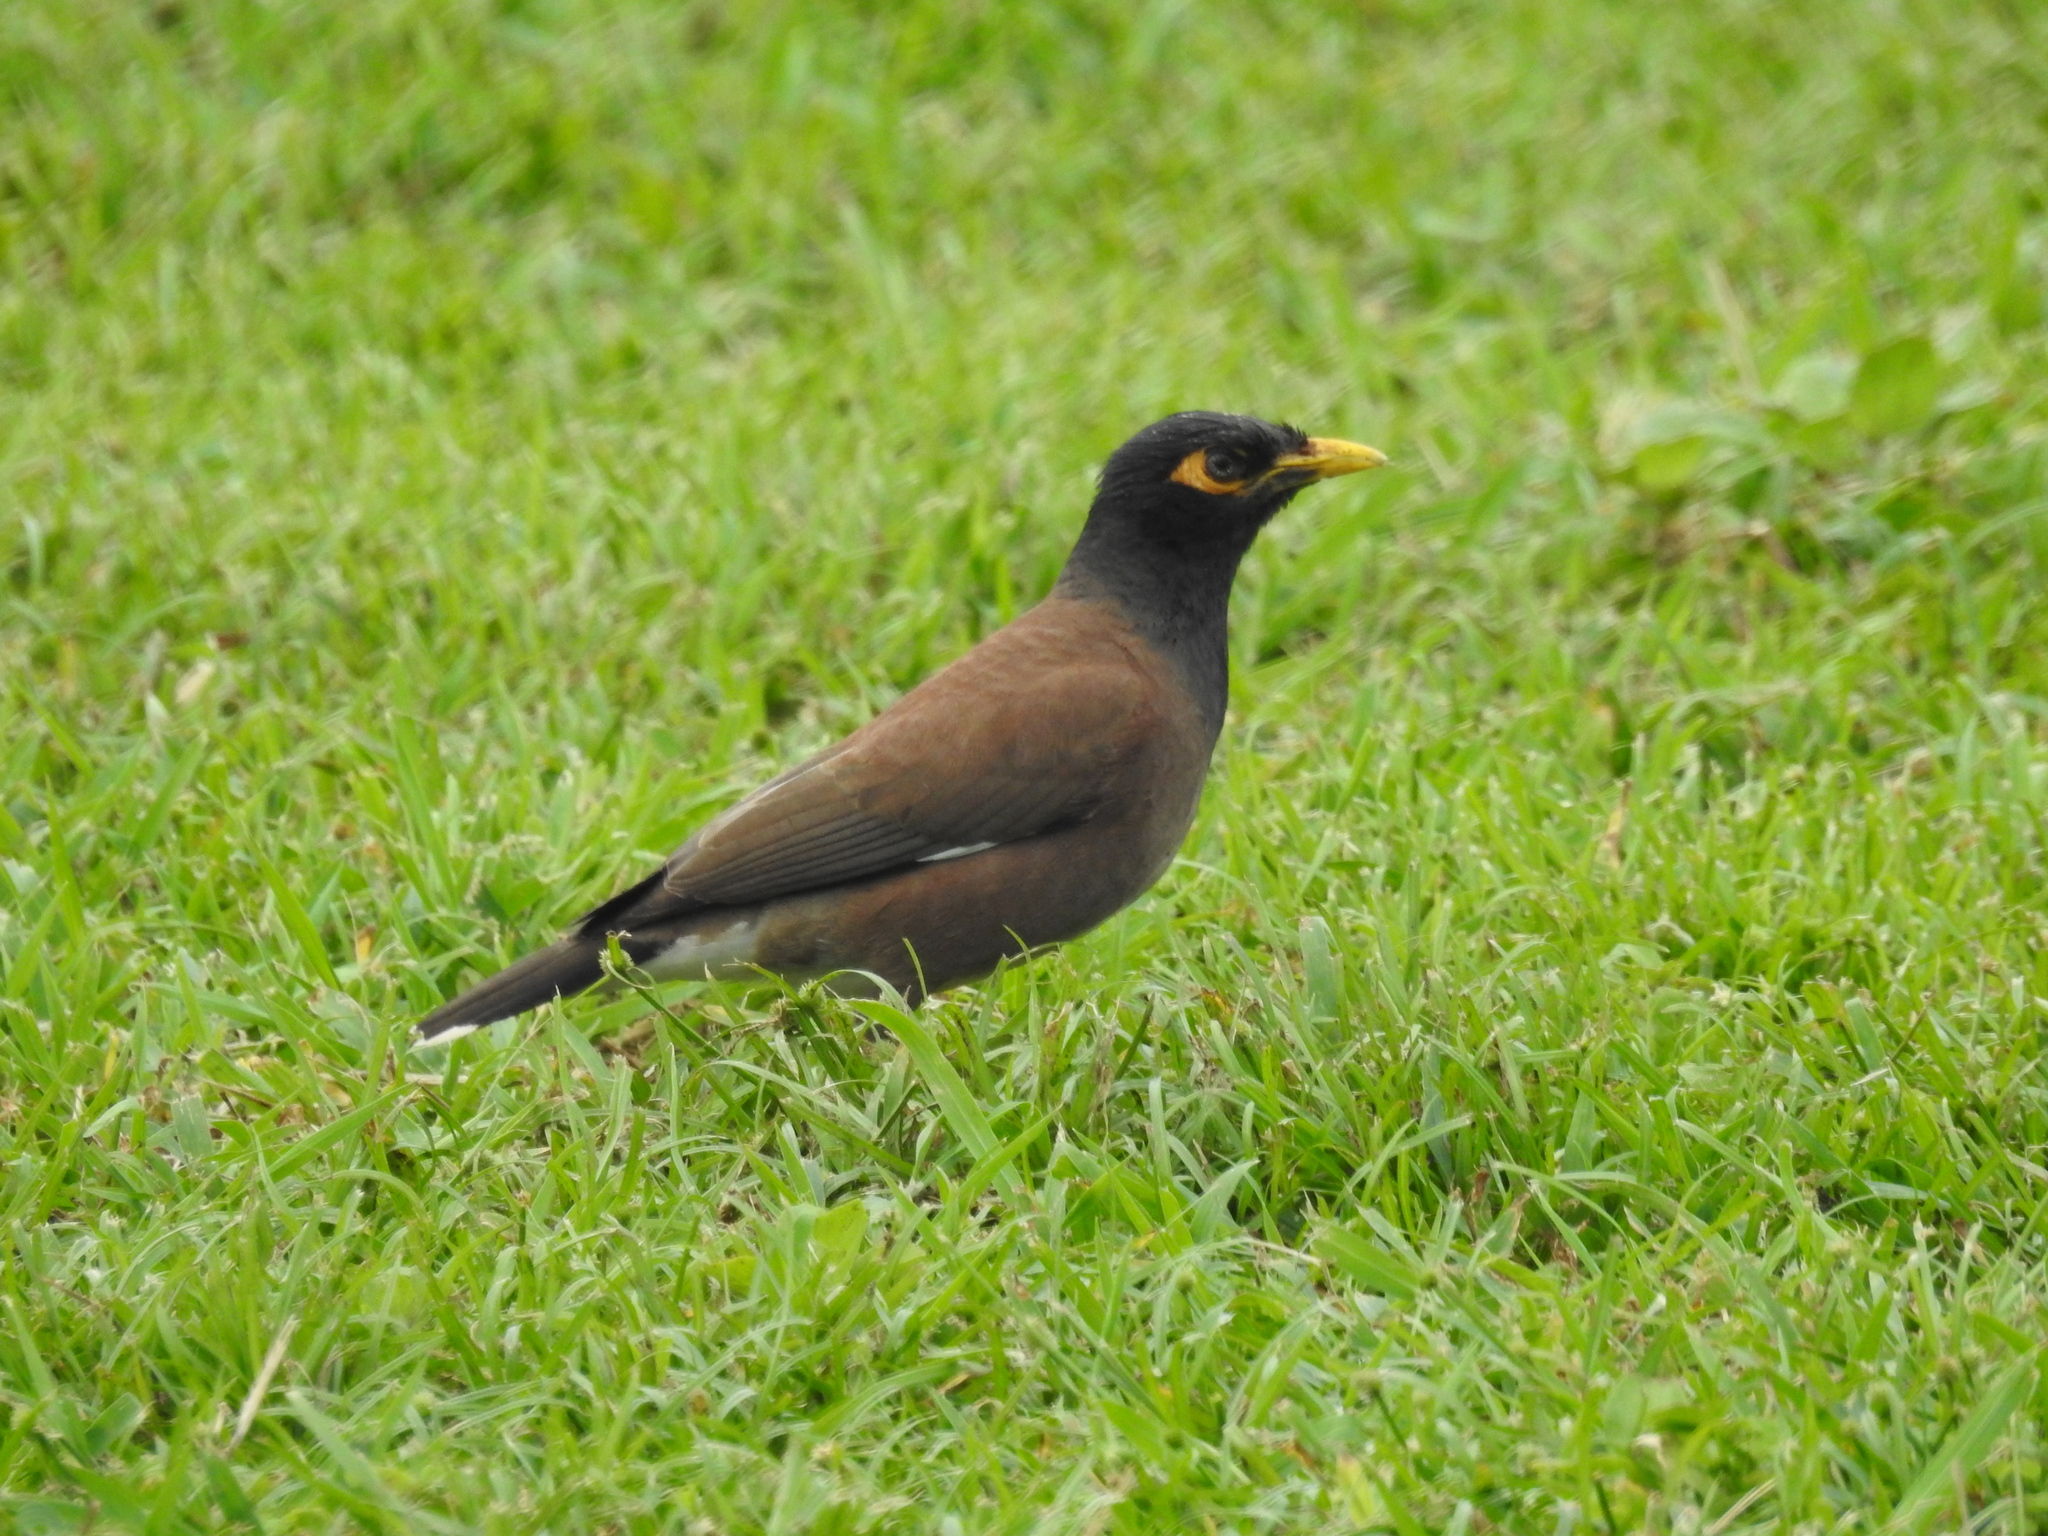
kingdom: Animalia
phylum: Chordata
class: Aves
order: Passeriformes
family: Sturnidae
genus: Acridotheres
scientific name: Acridotheres tristis
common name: Common myna
